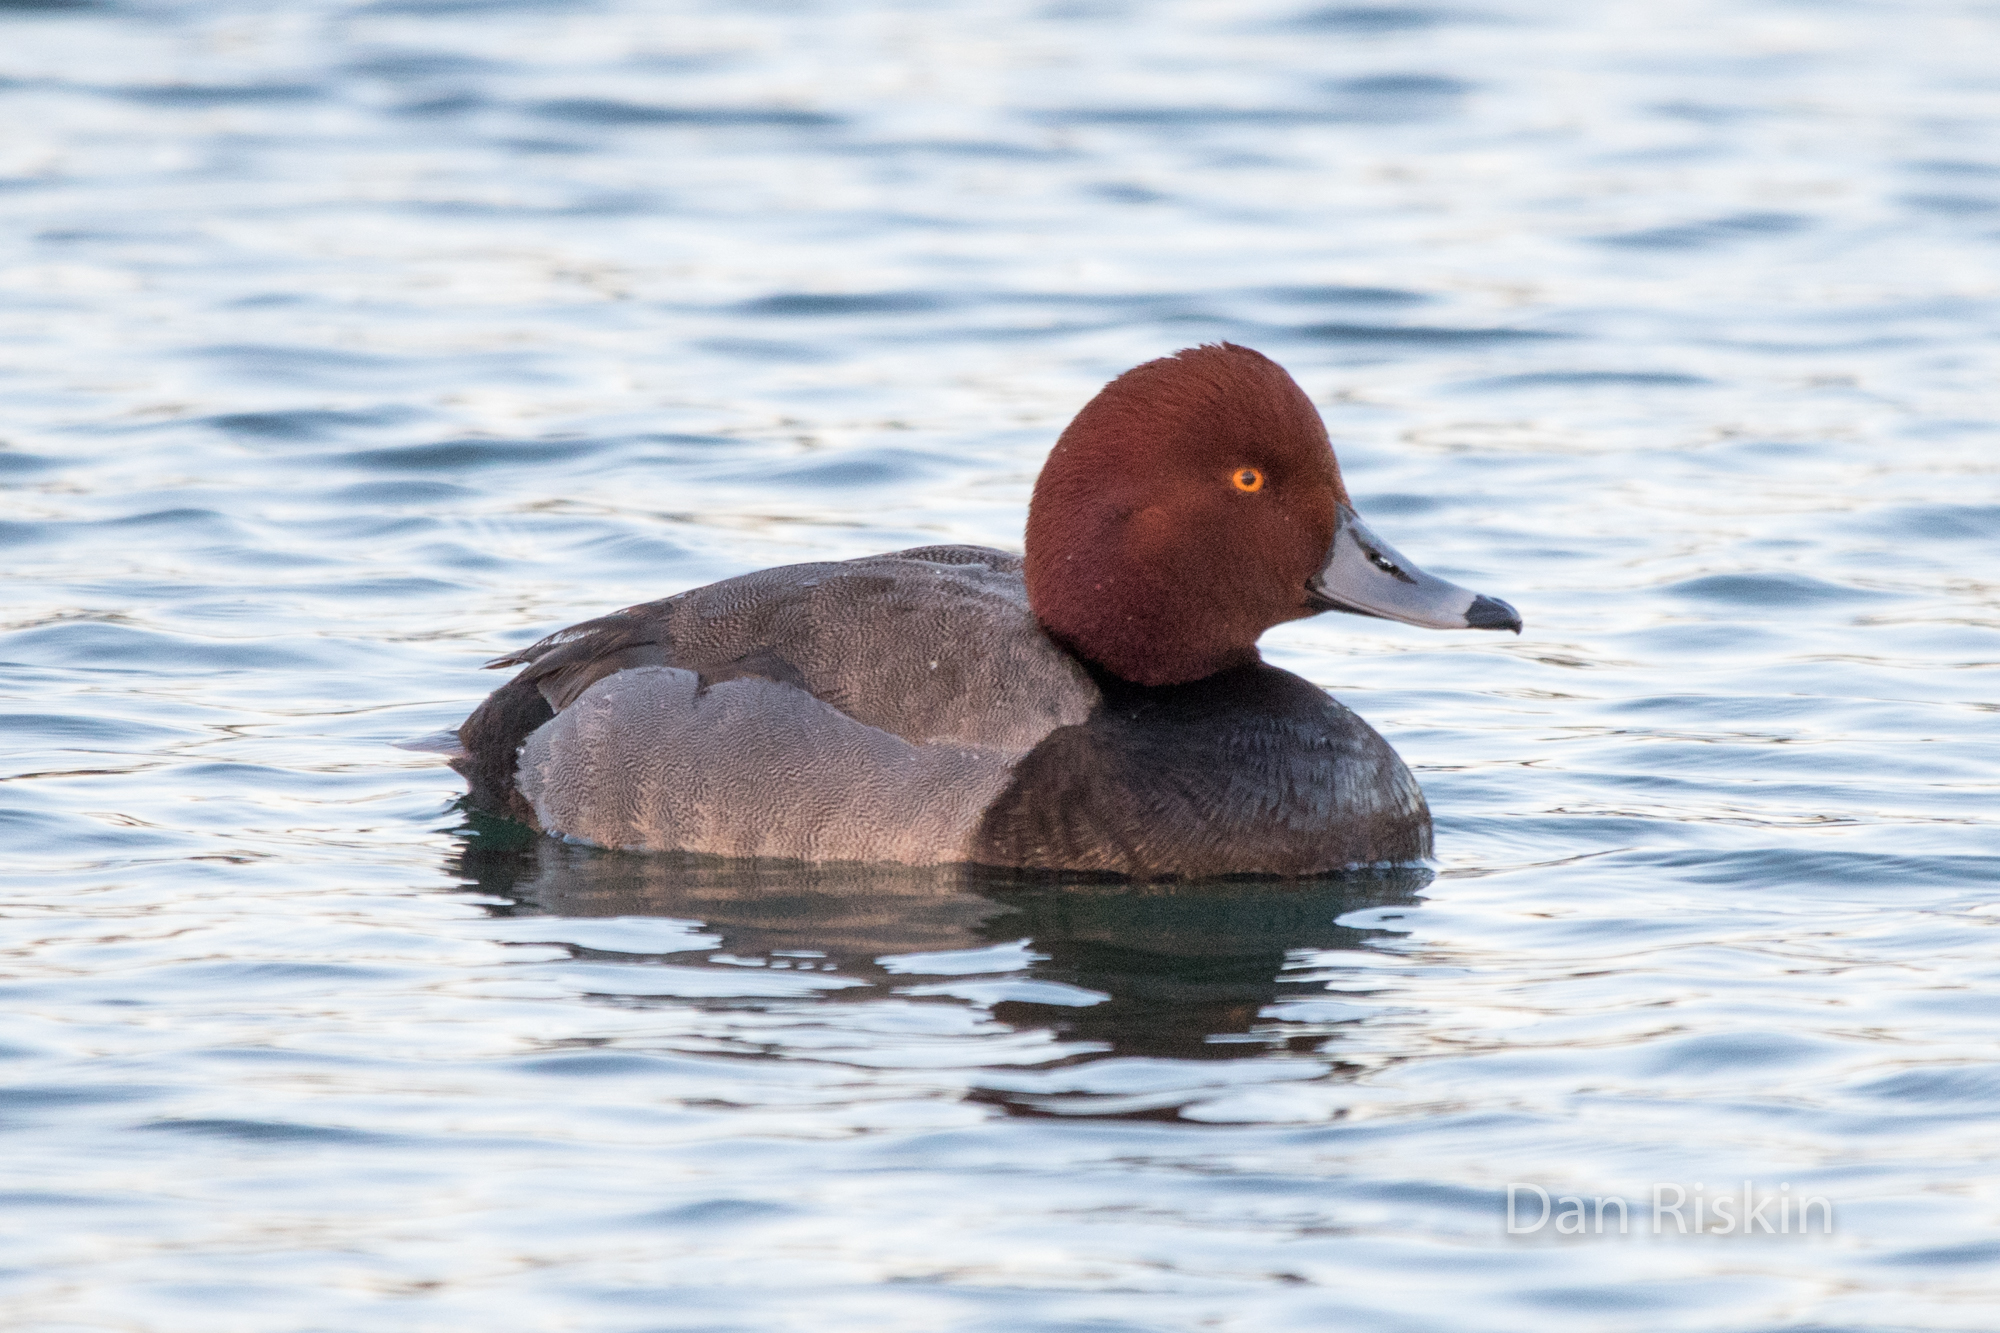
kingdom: Animalia
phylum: Chordata
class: Aves
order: Anseriformes
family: Anatidae
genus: Aythya
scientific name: Aythya americana
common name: Redhead
